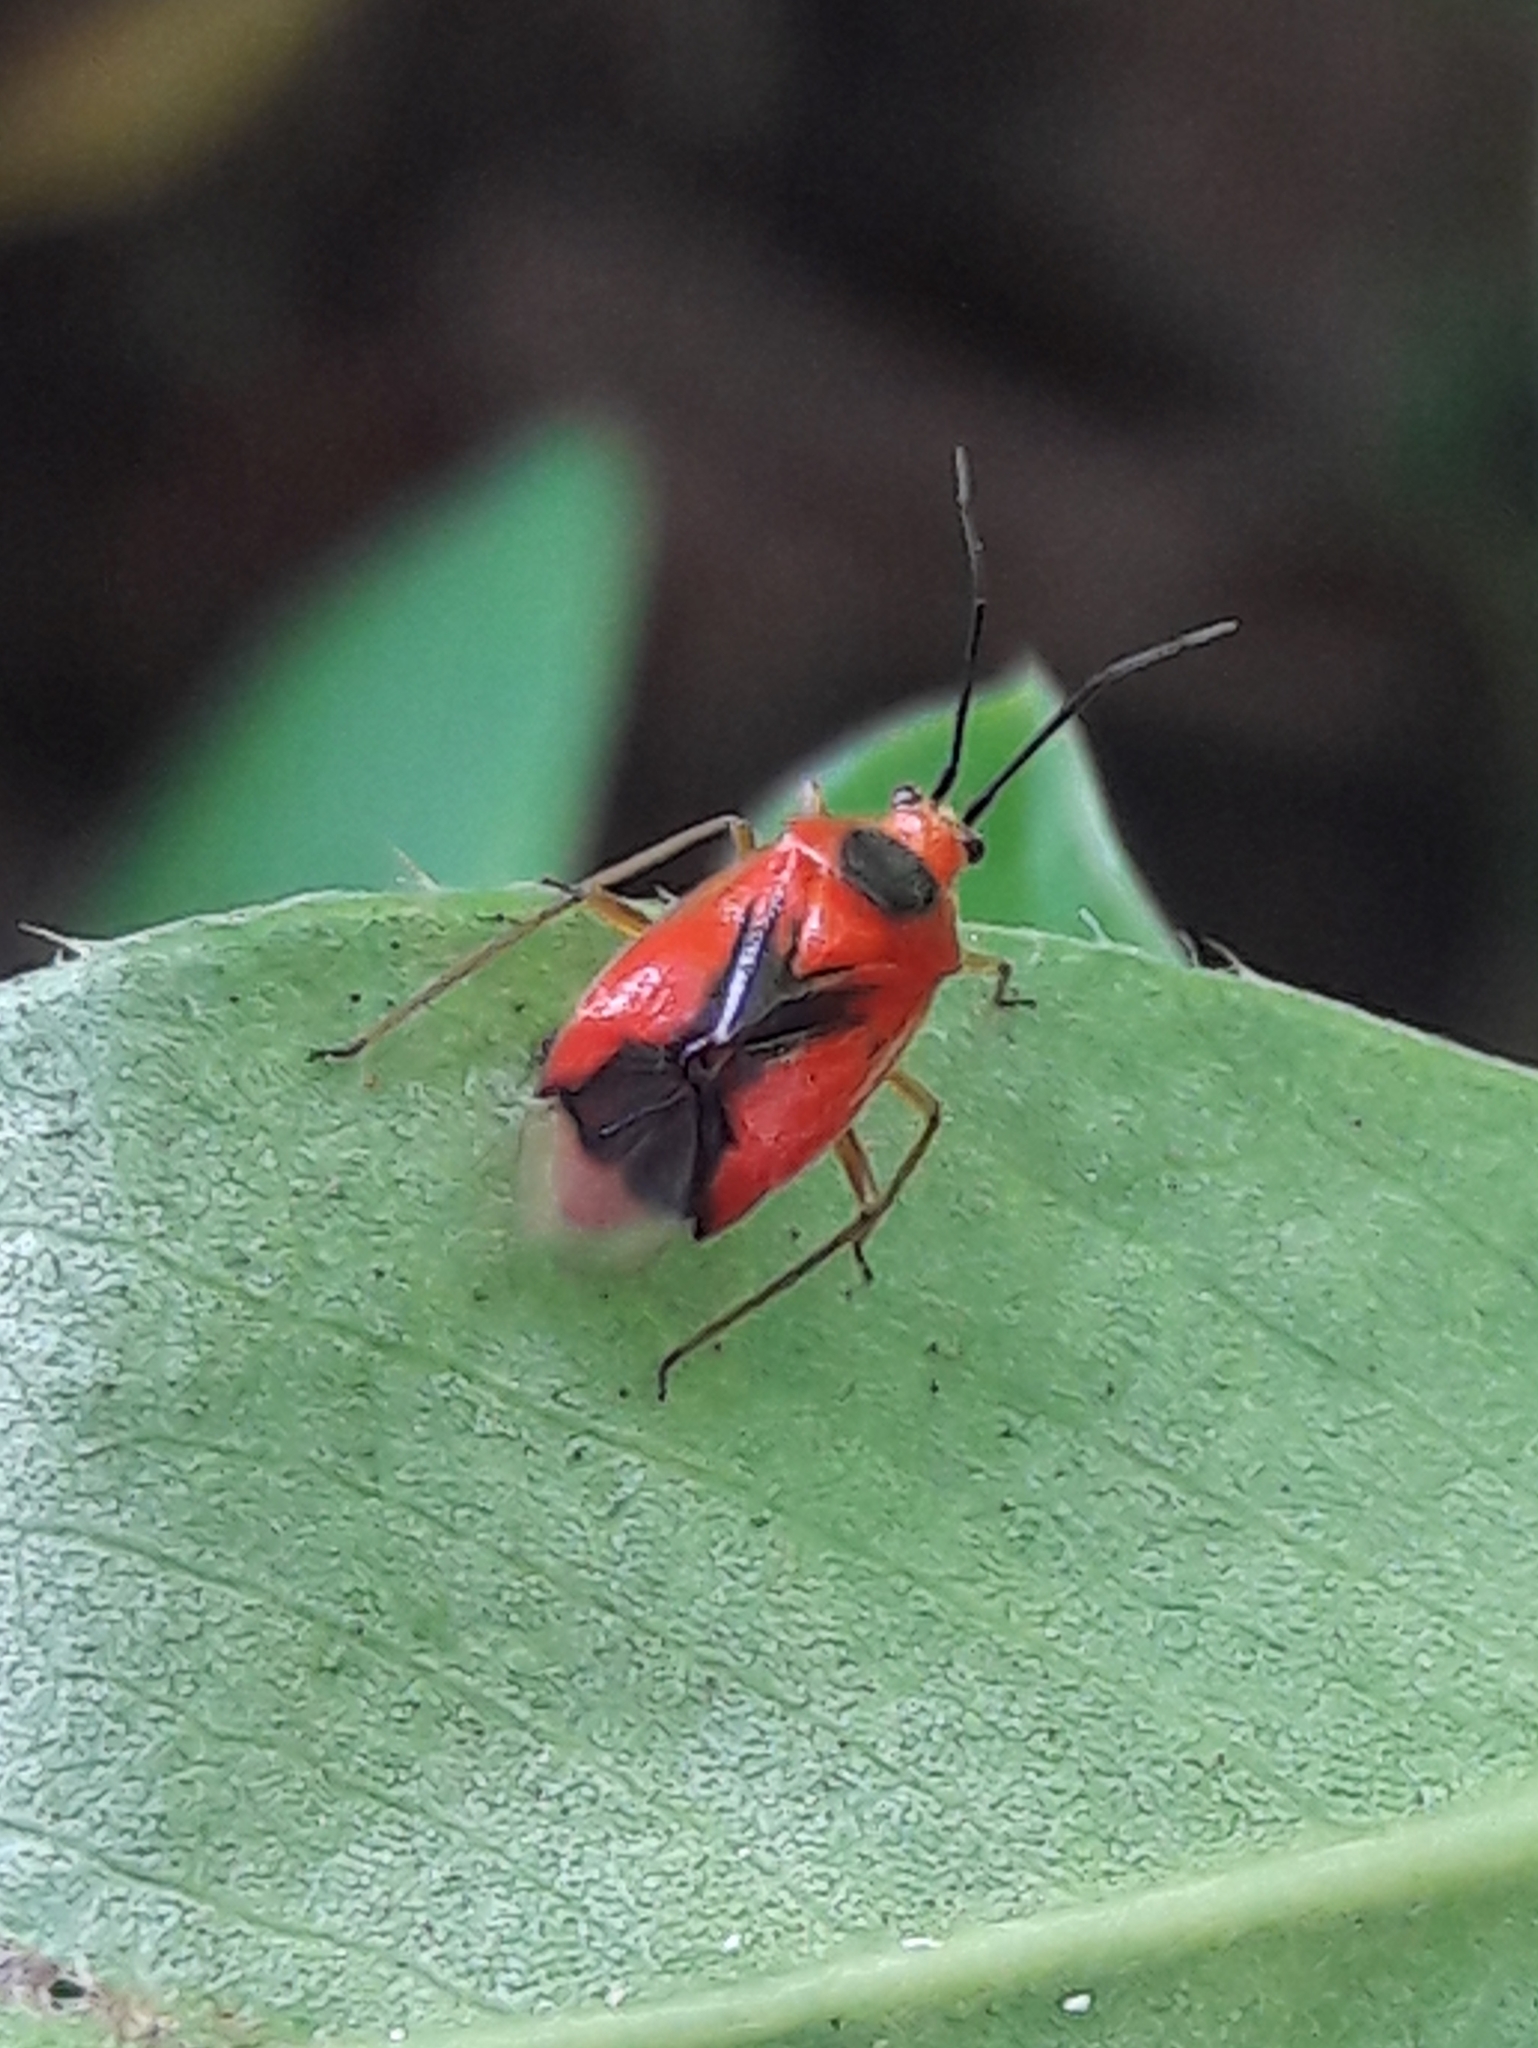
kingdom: Animalia
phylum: Arthropoda
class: Insecta
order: Hemiptera
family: Miridae
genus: Ambracius
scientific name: Ambracius dufouri
